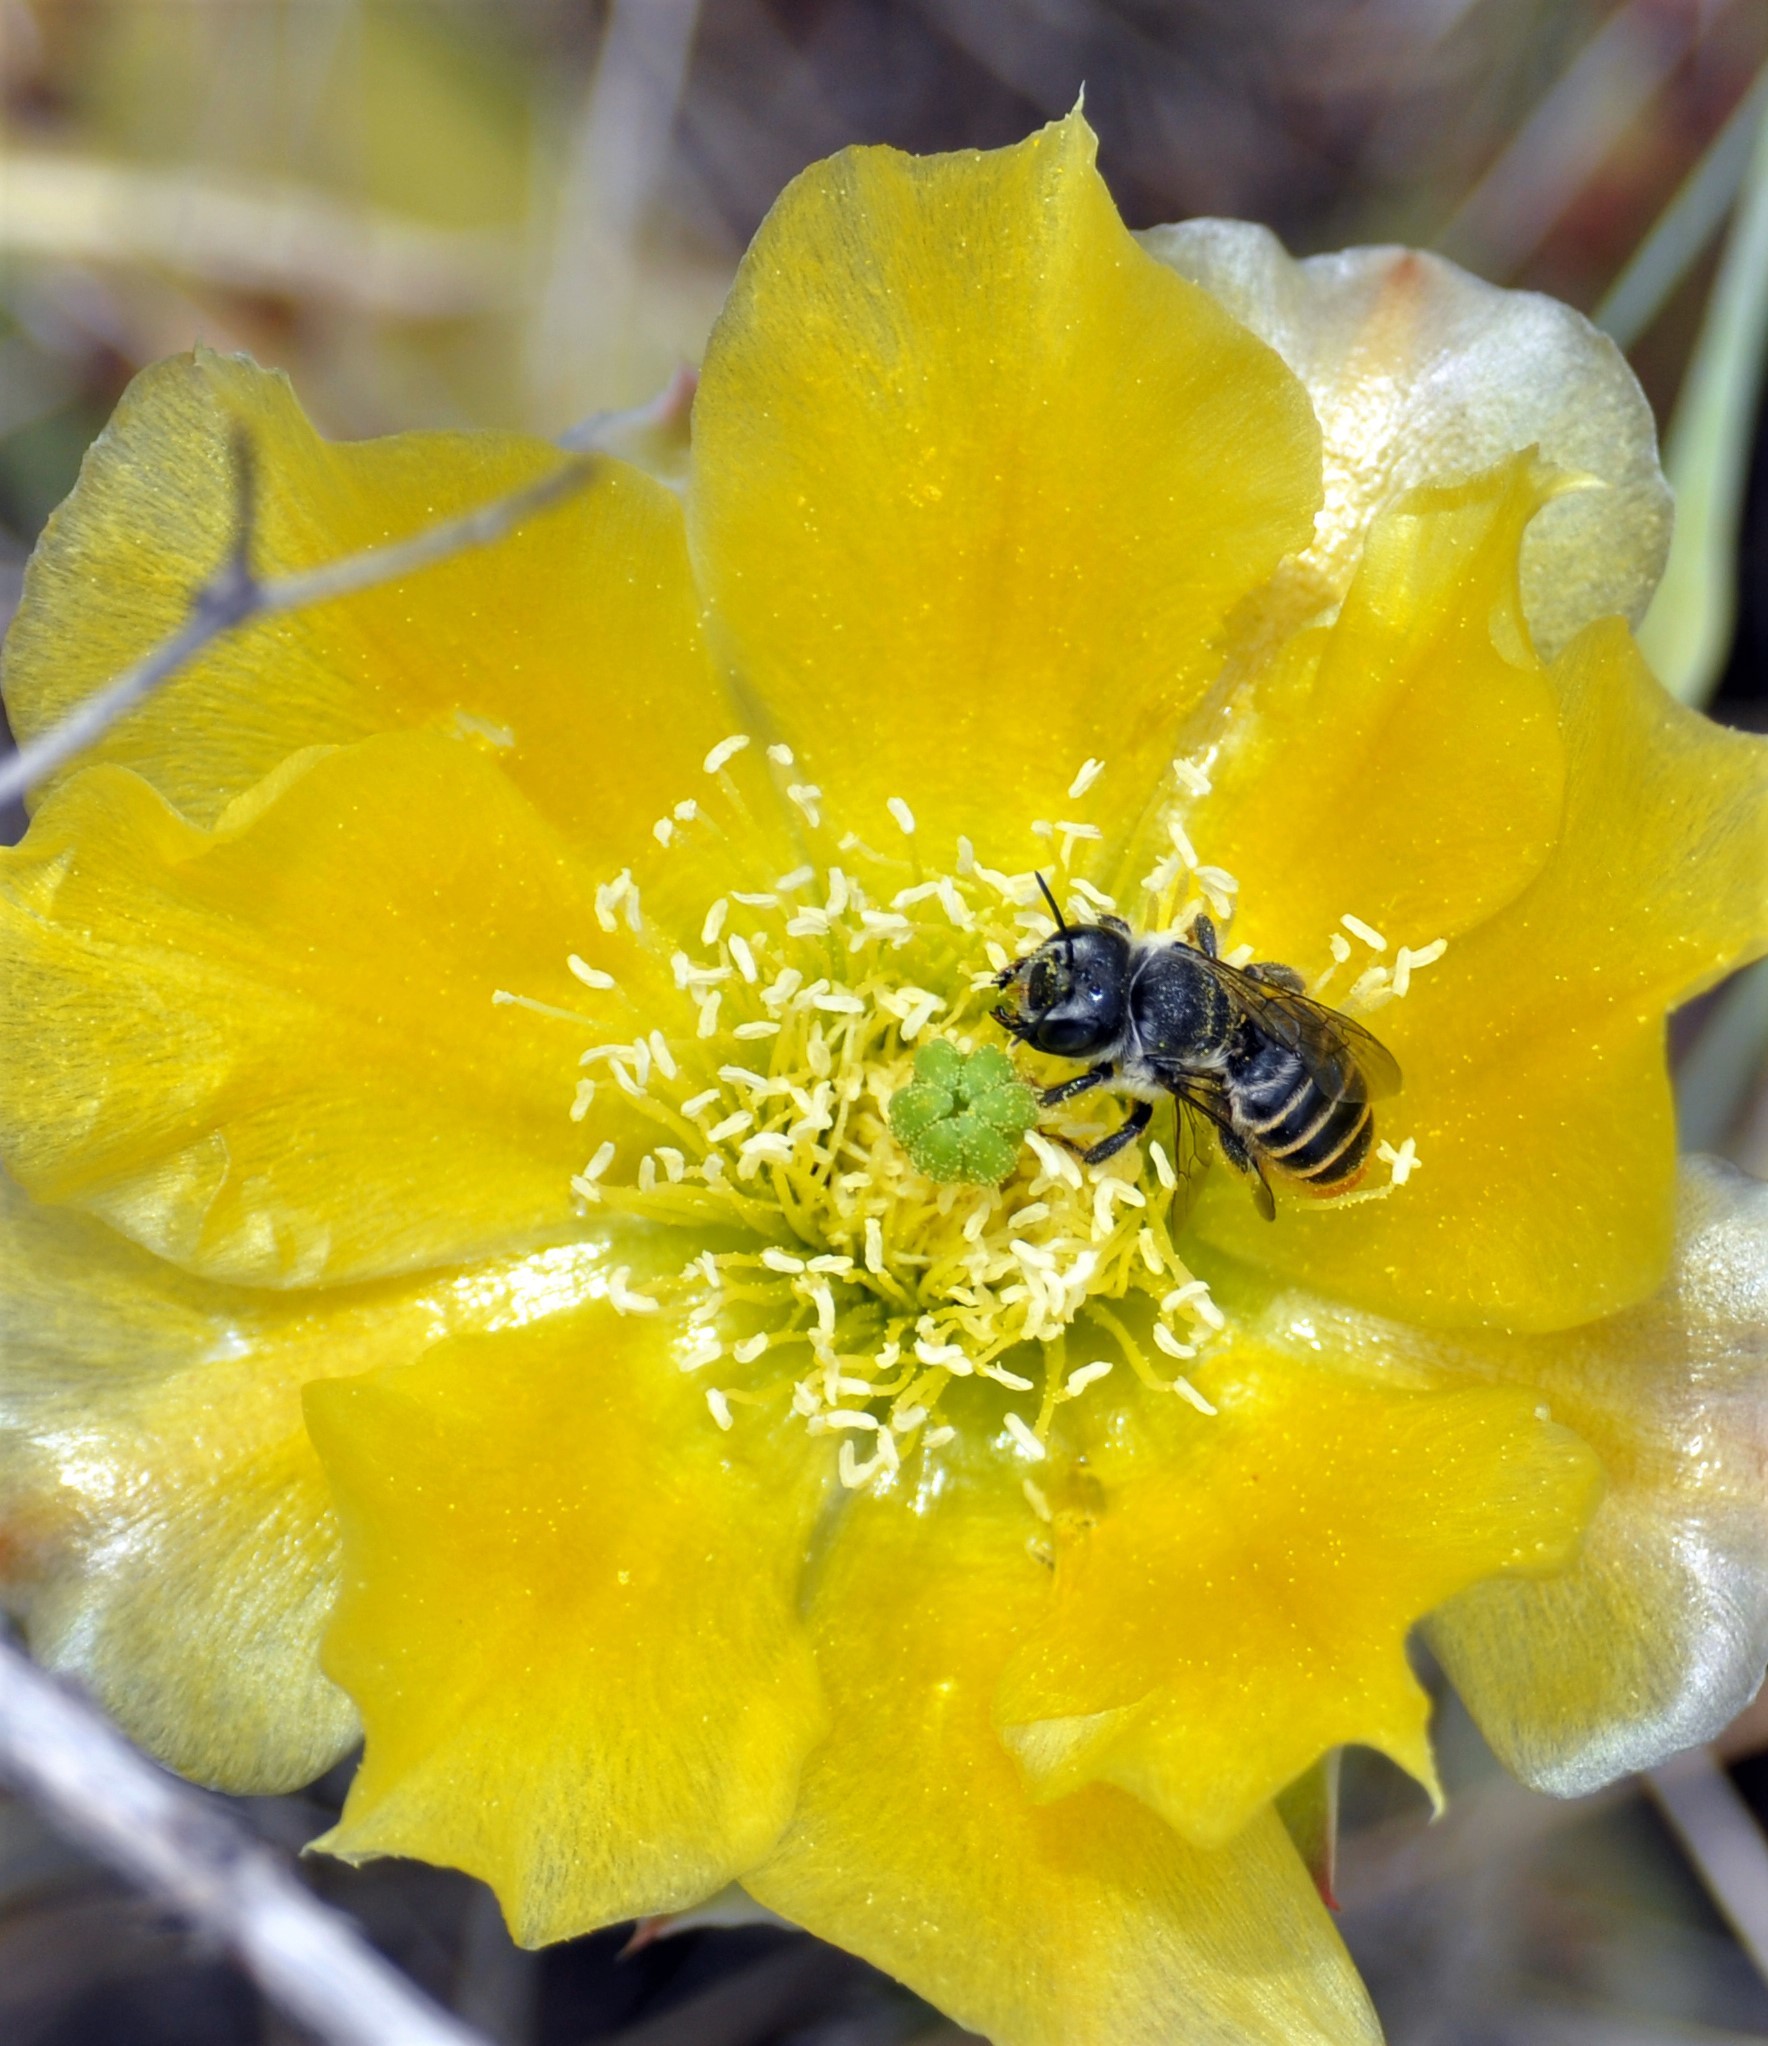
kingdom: Animalia
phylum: Arthropoda
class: Insecta
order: Hymenoptera
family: Megachilidae
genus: Lithurgopsis
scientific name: Lithurgopsis apicalis
